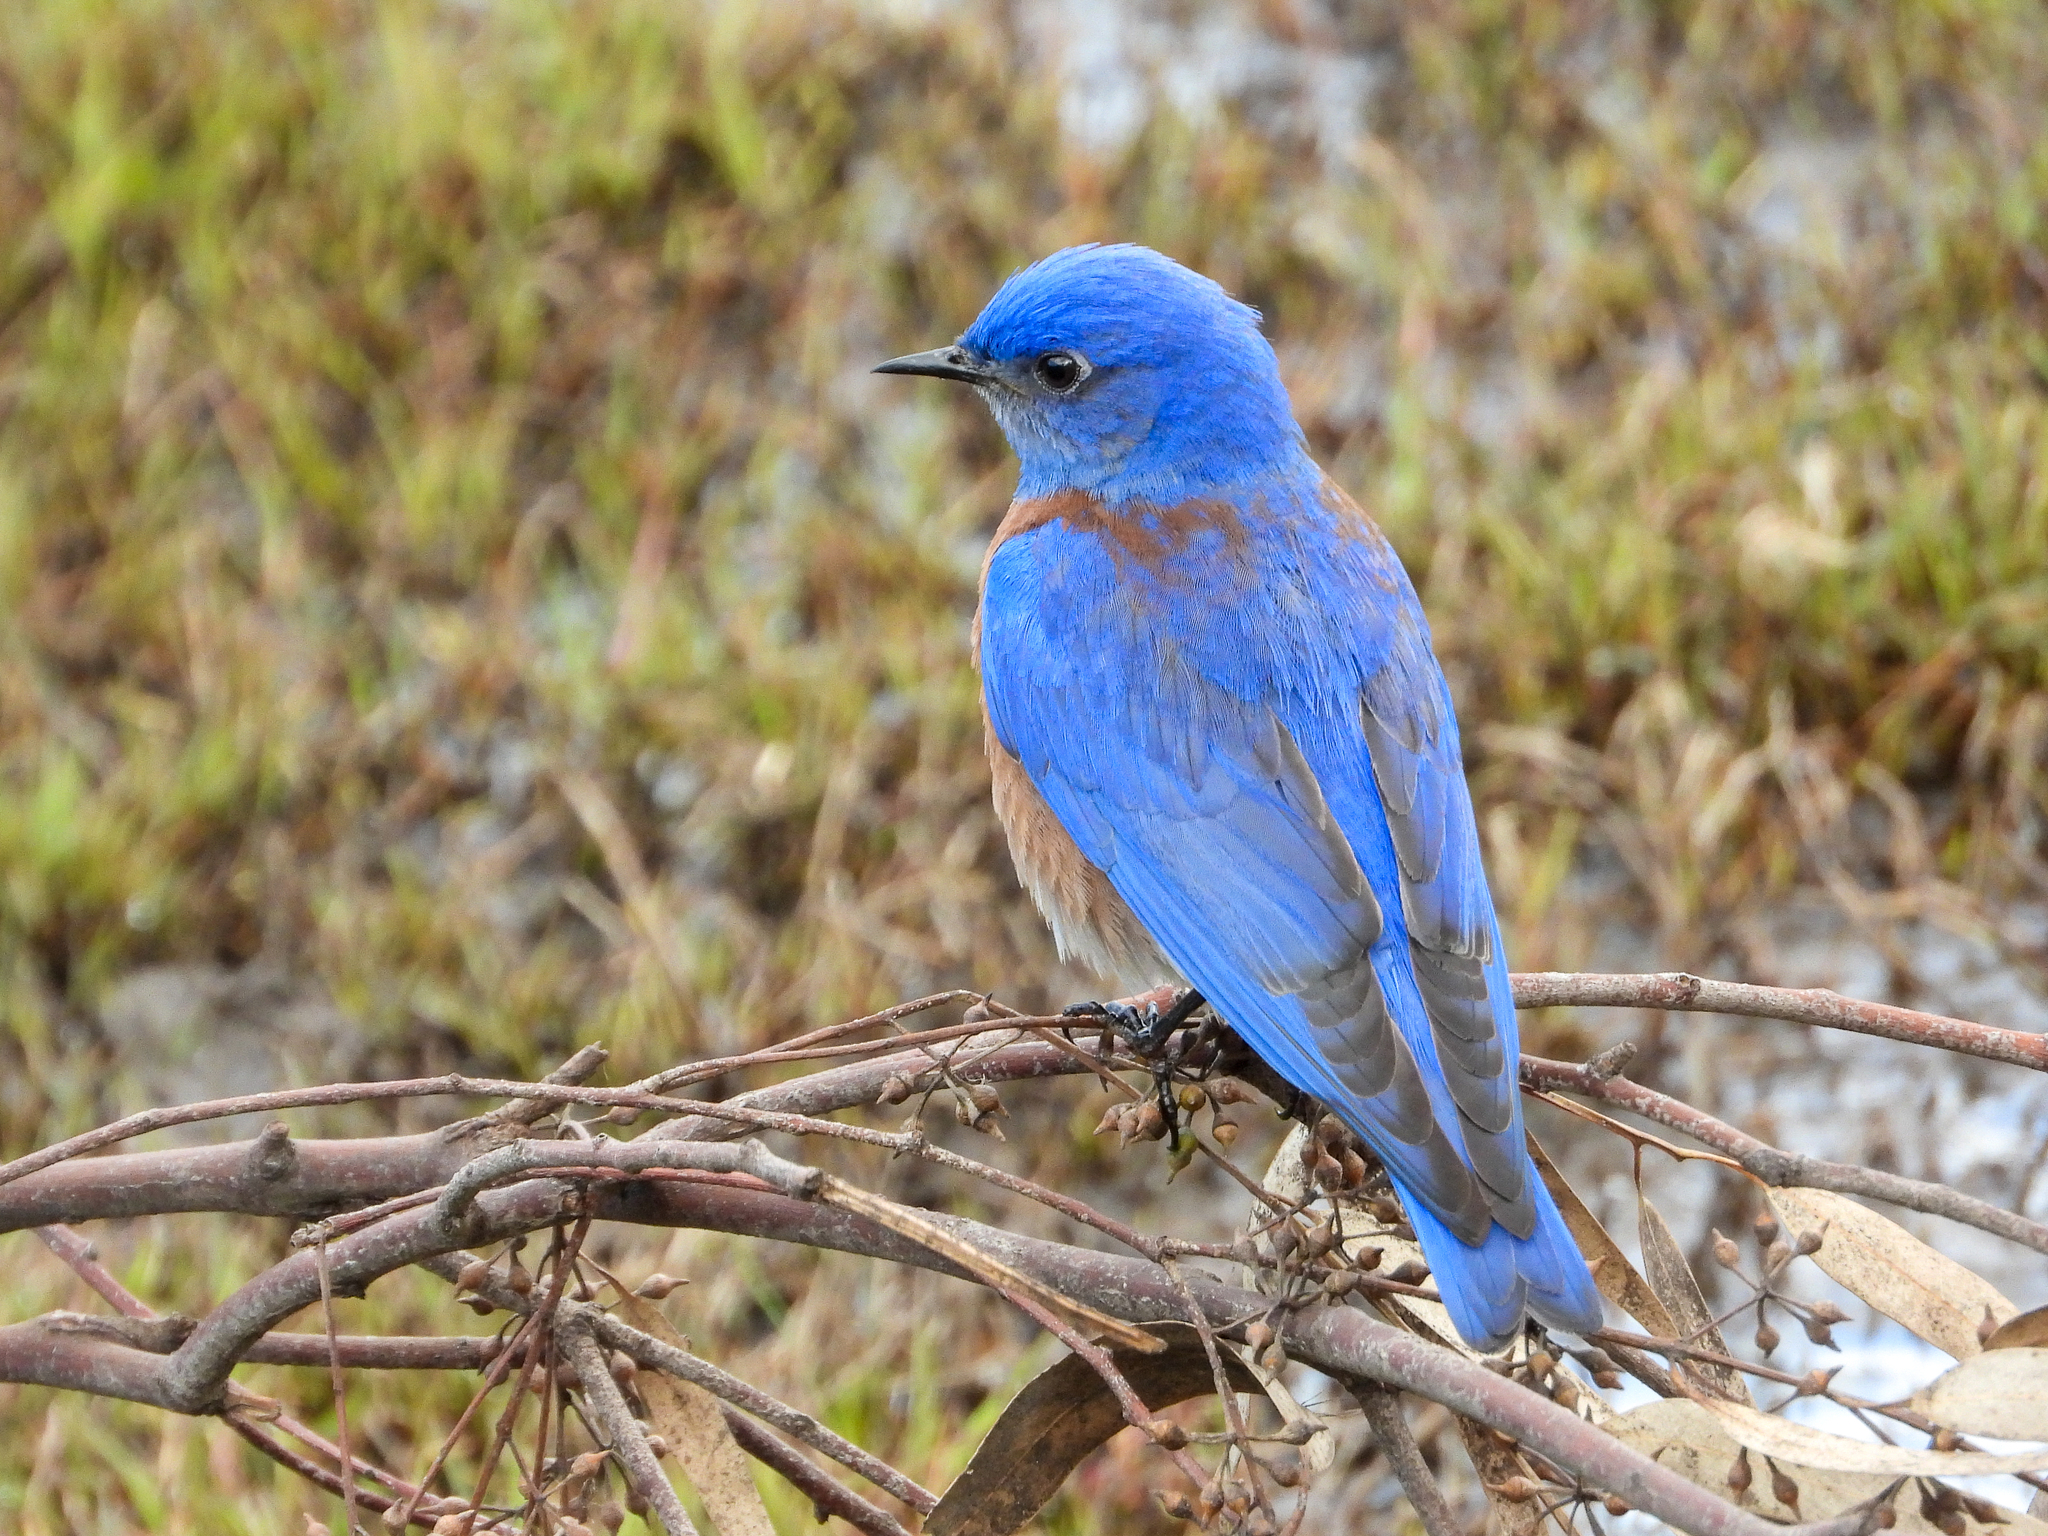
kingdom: Animalia
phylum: Chordata
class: Aves
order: Passeriformes
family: Turdidae
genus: Sialia
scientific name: Sialia mexicana
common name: Western bluebird
